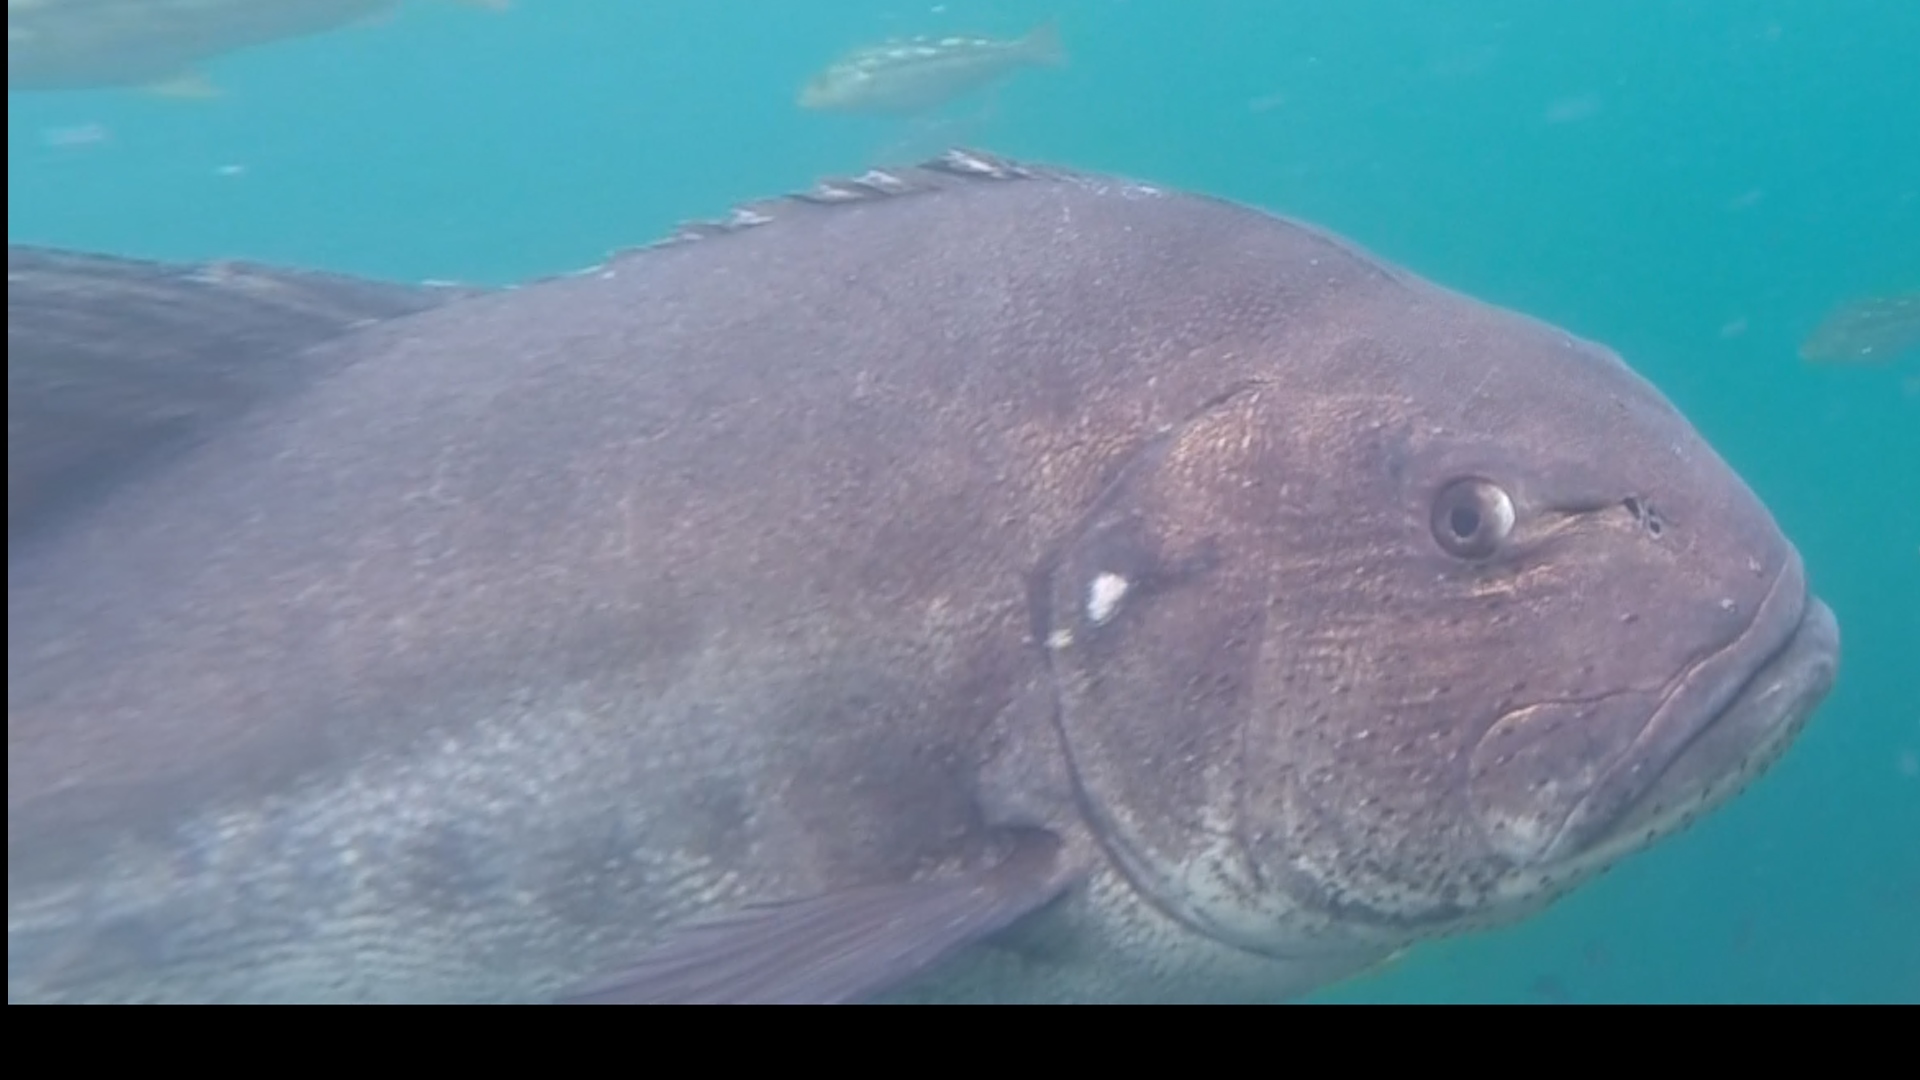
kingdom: Animalia
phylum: Chordata
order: Perciformes
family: Polyprionidae
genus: Stereolepis
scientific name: Stereolepis gigas
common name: Giant sea bass
